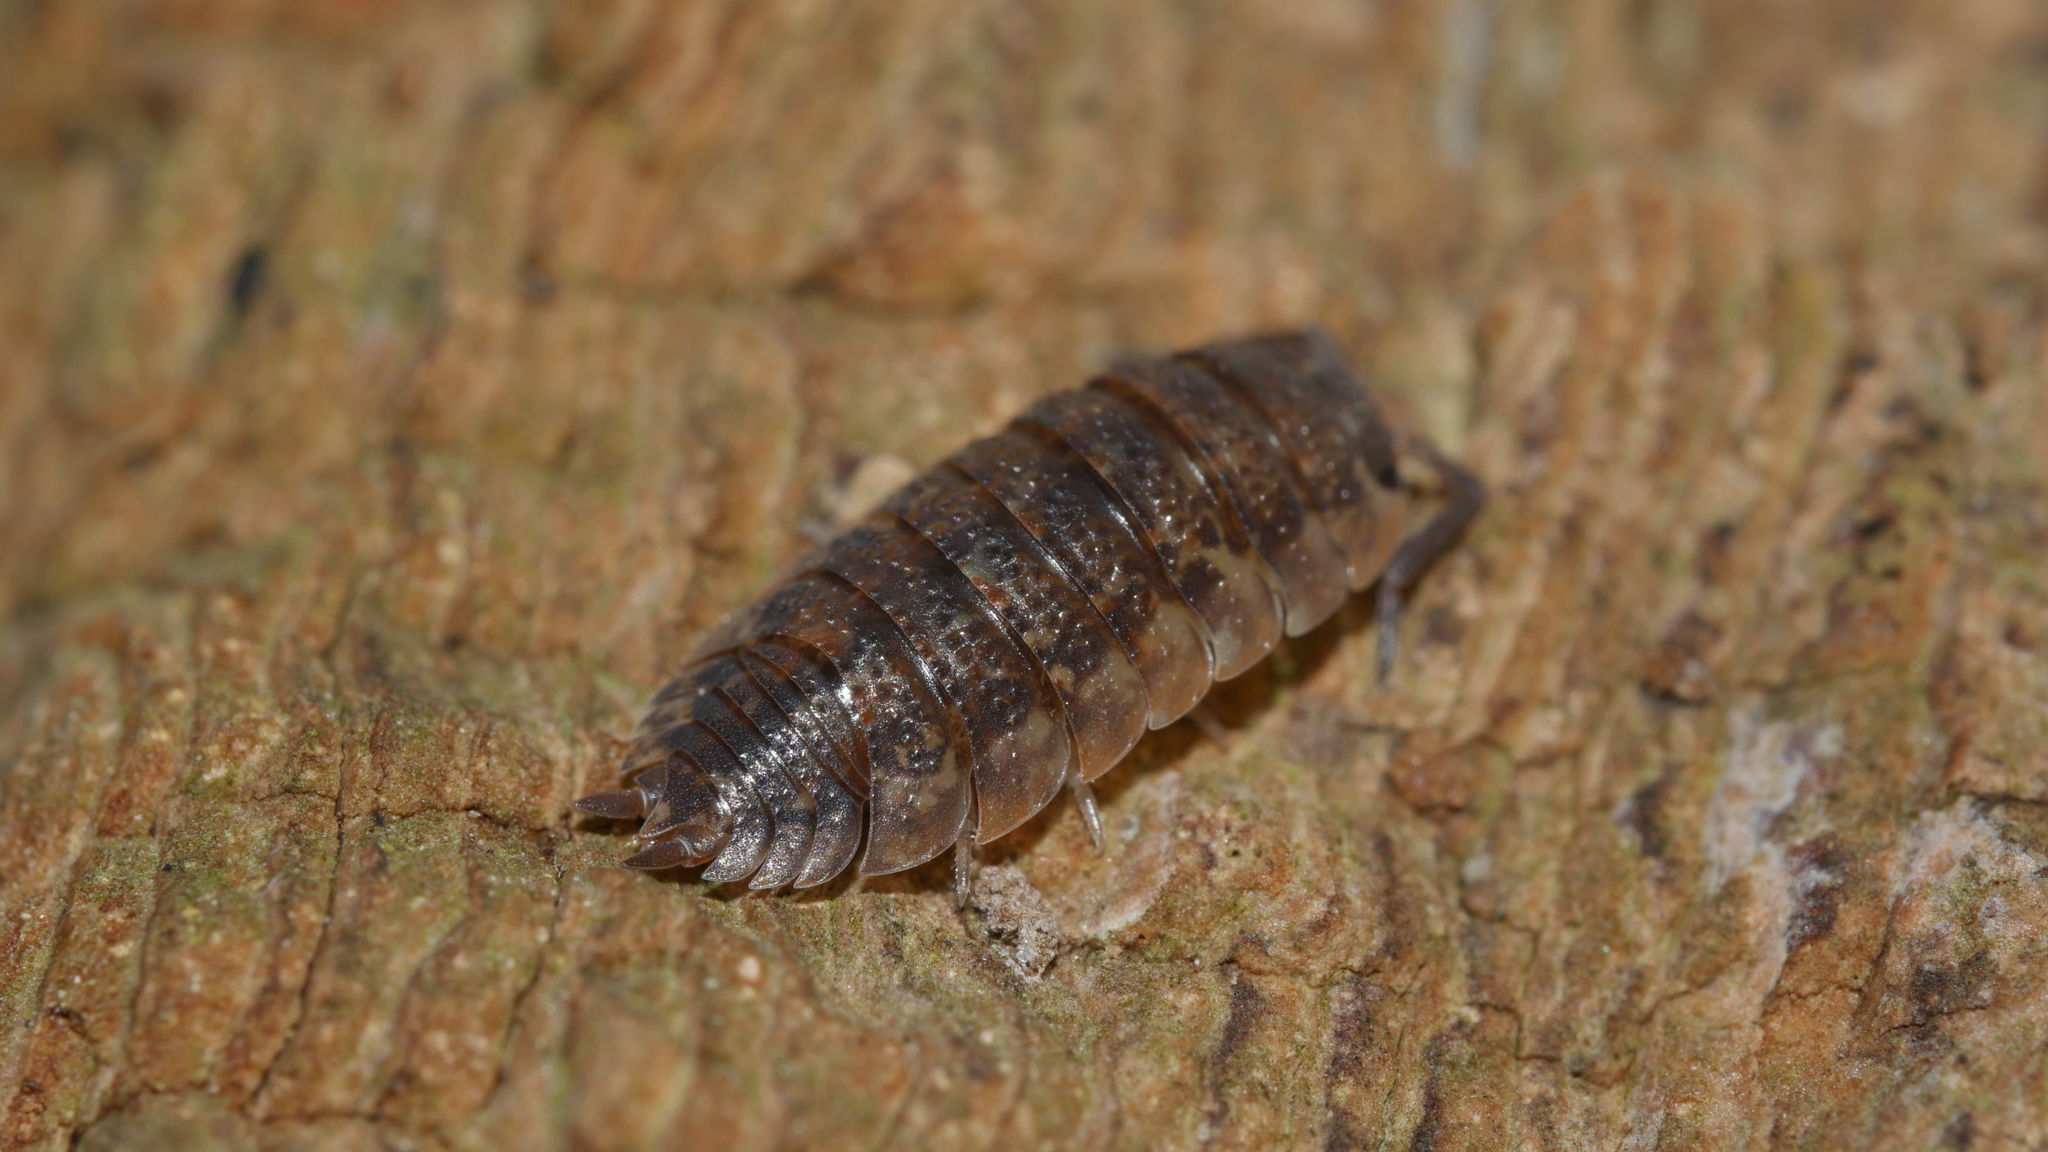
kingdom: Animalia
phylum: Arthropoda
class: Malacostraca
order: Isopoda
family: Porcellionidae
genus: Porcellio
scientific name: Porcellio scaber
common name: Common rough woodlouse
